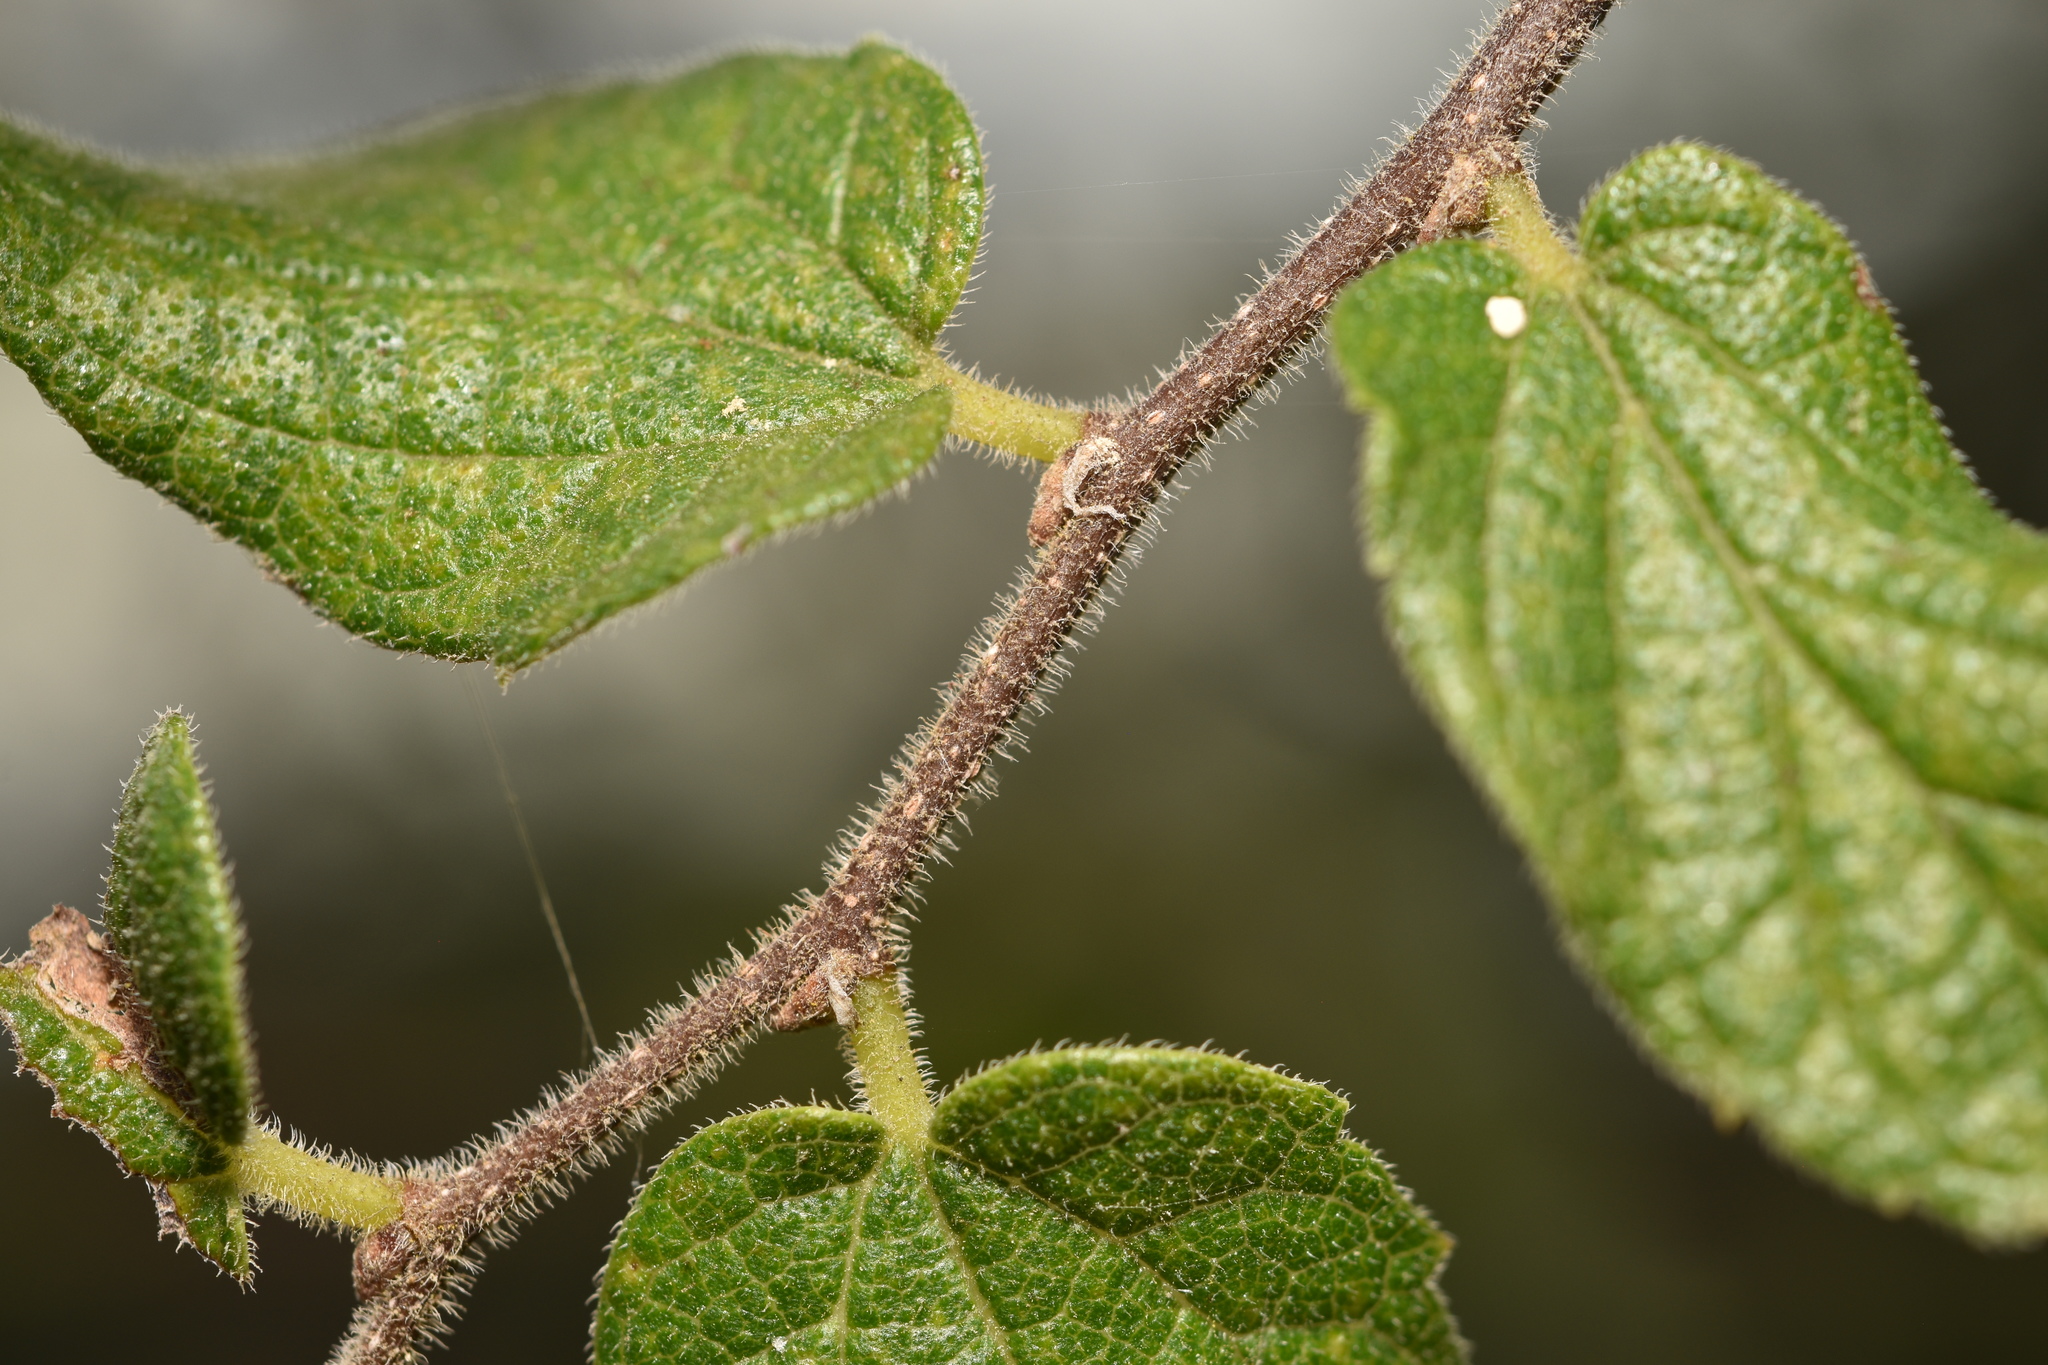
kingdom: Plantae
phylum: Tracheophyta
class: Magnoliopsida
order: Rosales
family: Cannabaceae
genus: Celtis
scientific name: Celtis reticulata
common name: Netleaf hackberry
